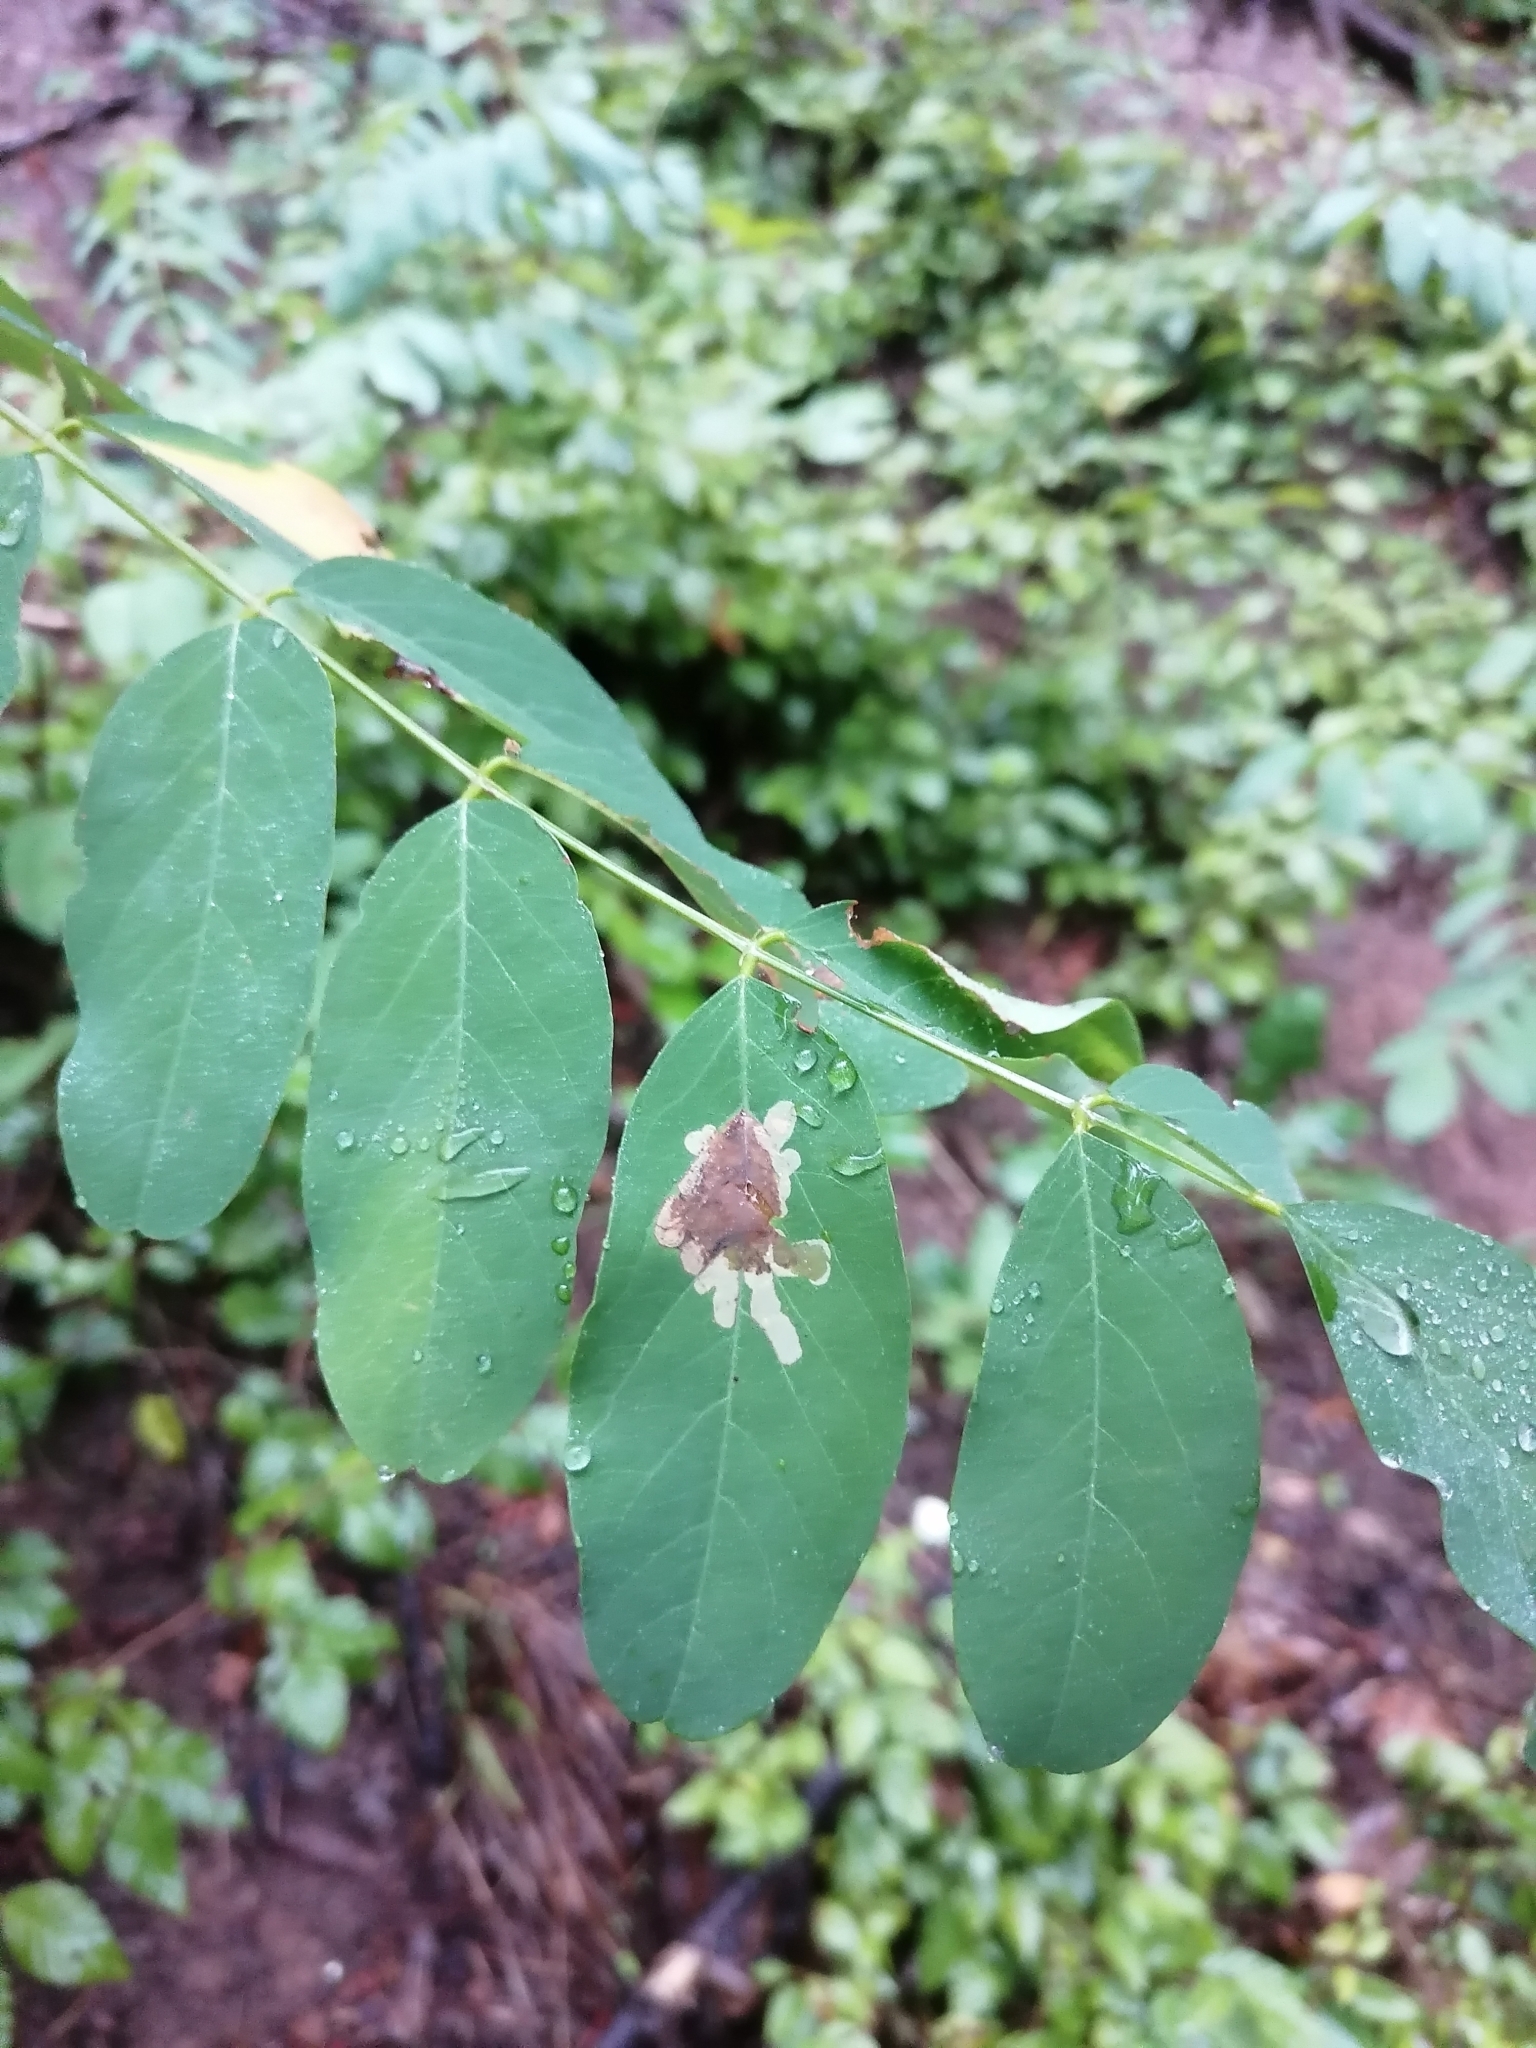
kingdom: Animalia
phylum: Arthropoda
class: Insecta
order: Lepidoptera
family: Gracillariidae
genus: Parectopa
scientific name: Parectopa robiniella
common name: Locust digitate leafminer
